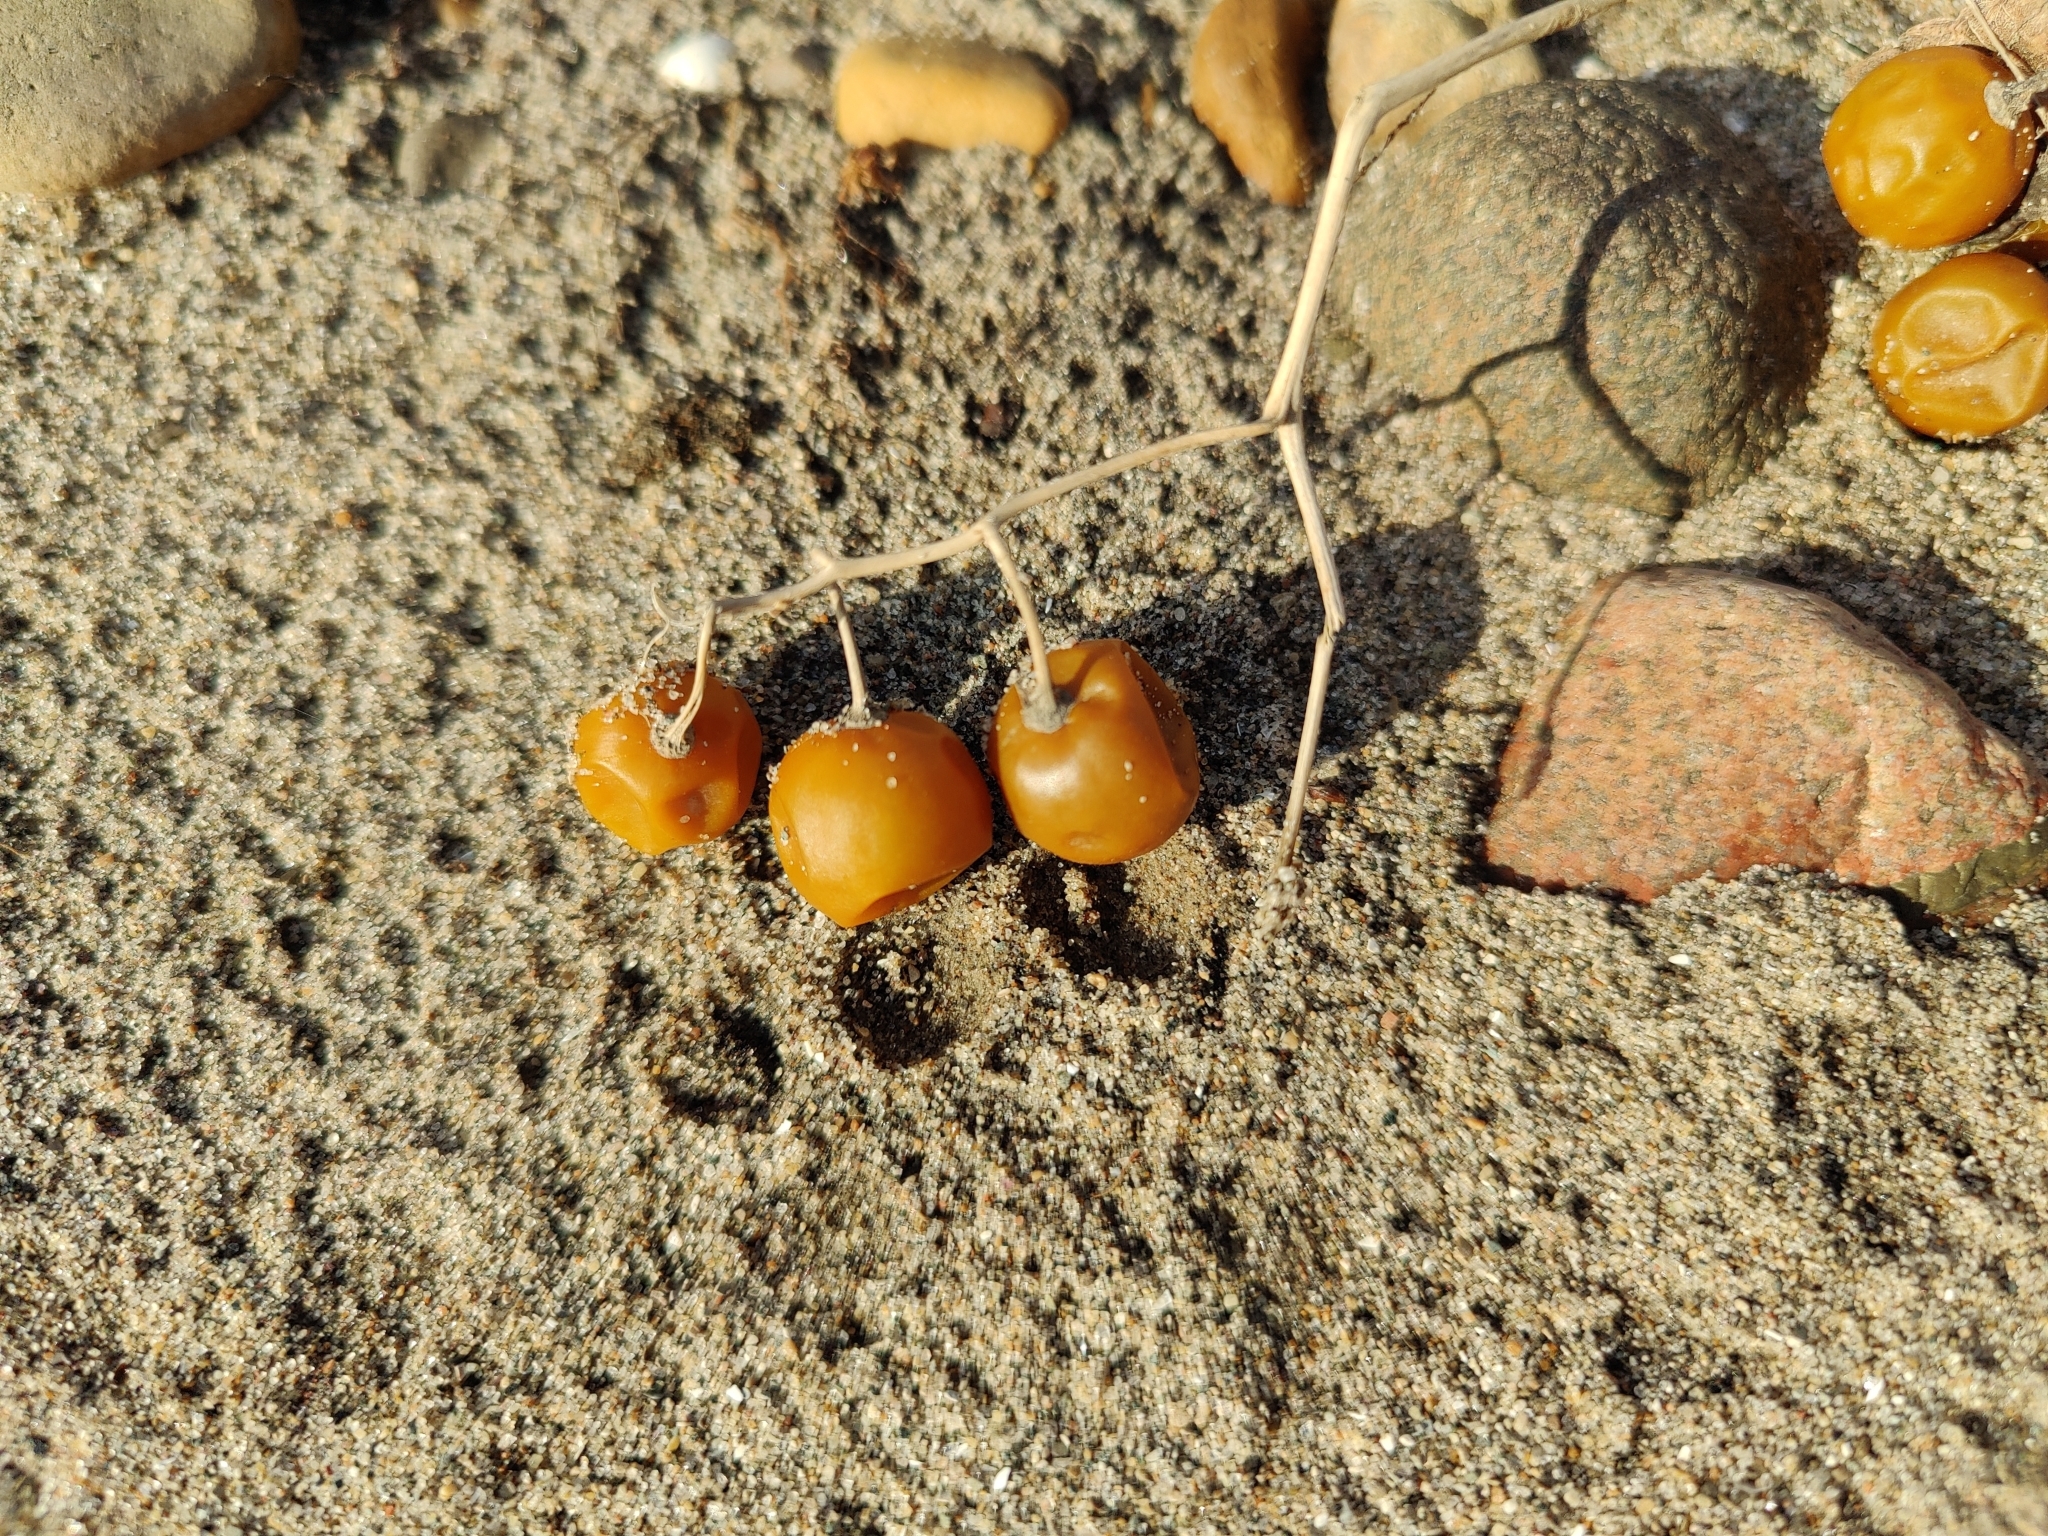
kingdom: Plantae
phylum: Tracheophyta
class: Magnoliopsida
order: Solanales
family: Solanaceae
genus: Solanum
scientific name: Solanum carolinense
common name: Horse-nettle
